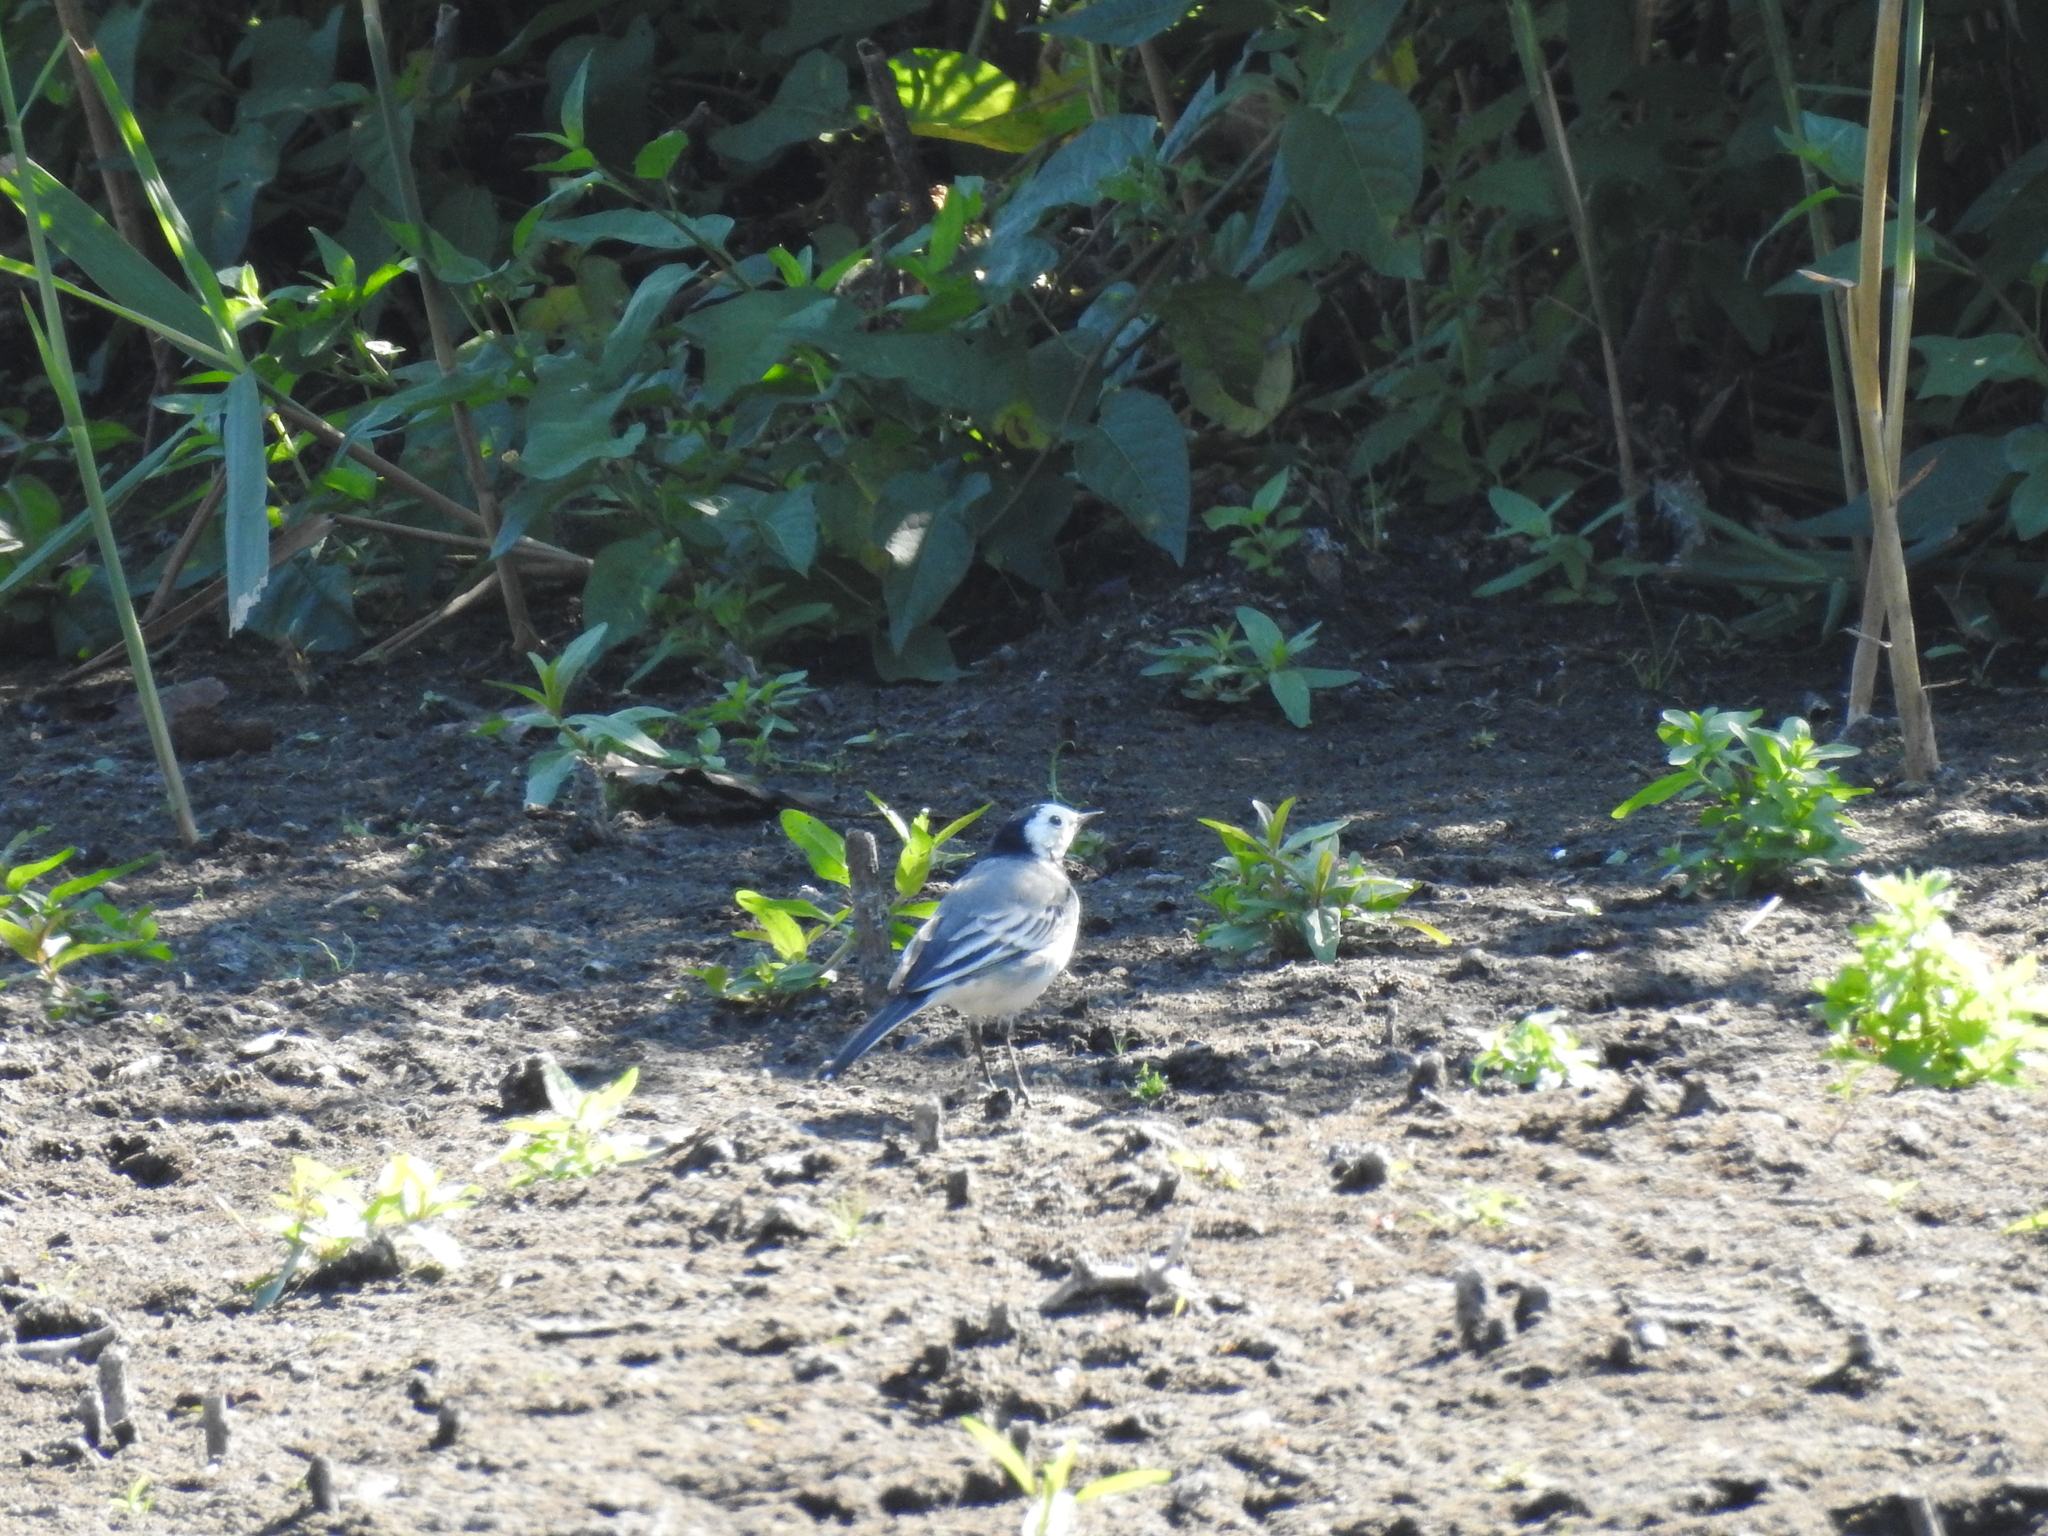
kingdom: Animalia
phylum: Chordata
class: Aves
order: Passeriformes
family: Motacillidae
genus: Motacilla
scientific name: Motacilla alba
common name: White wagtail
